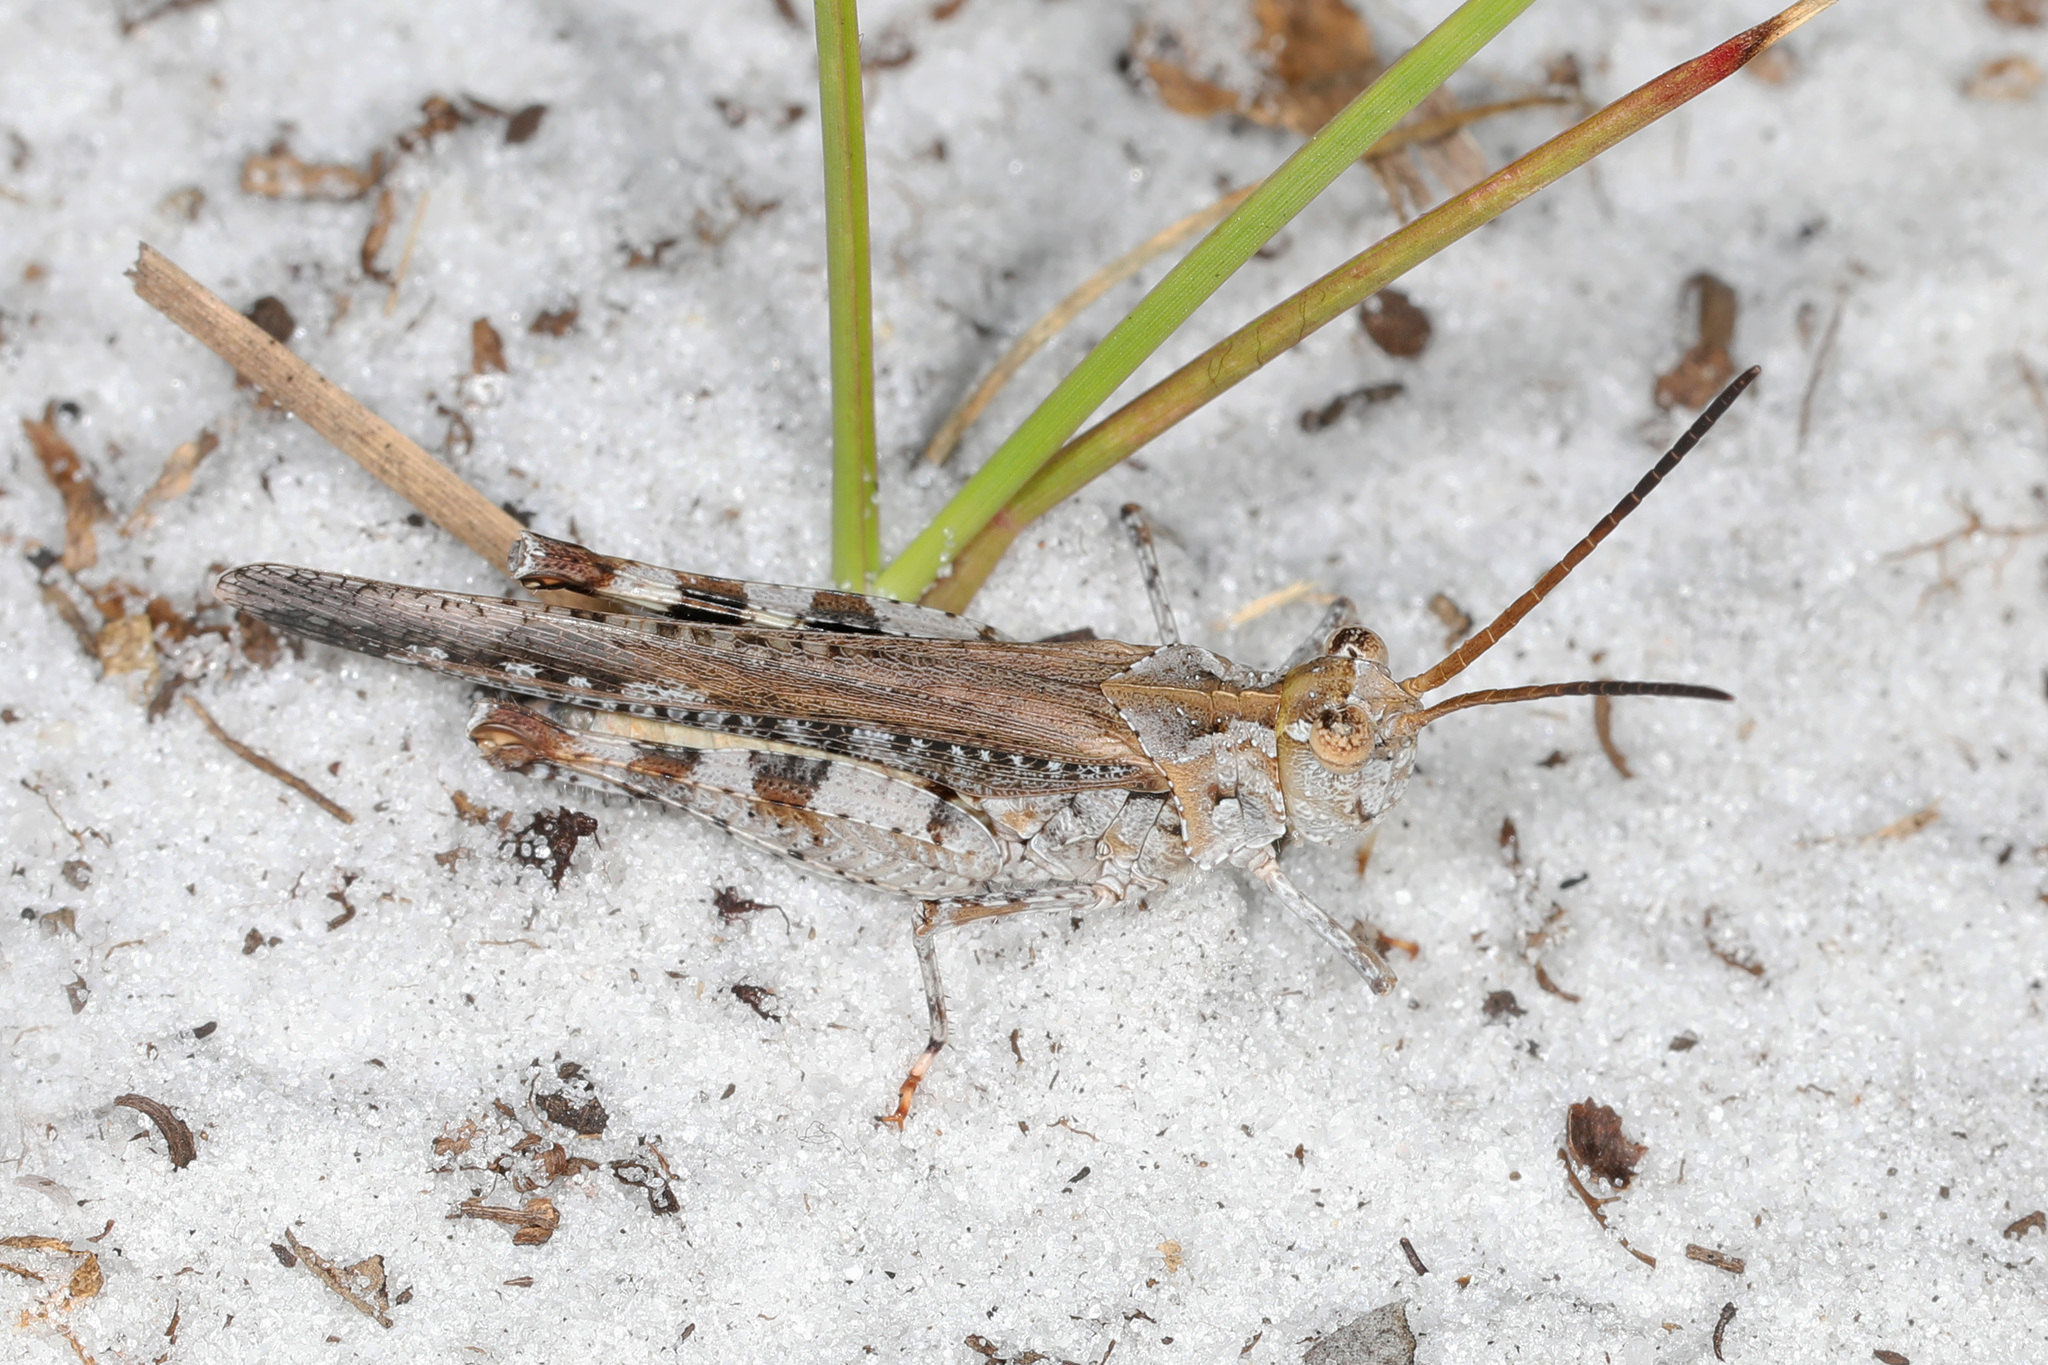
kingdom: Animalia
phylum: Arthropoda
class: Insecta
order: Orthoptera
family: Acrididae
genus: Psinidia
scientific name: Psinidia fenestralis
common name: Long-horned locust
